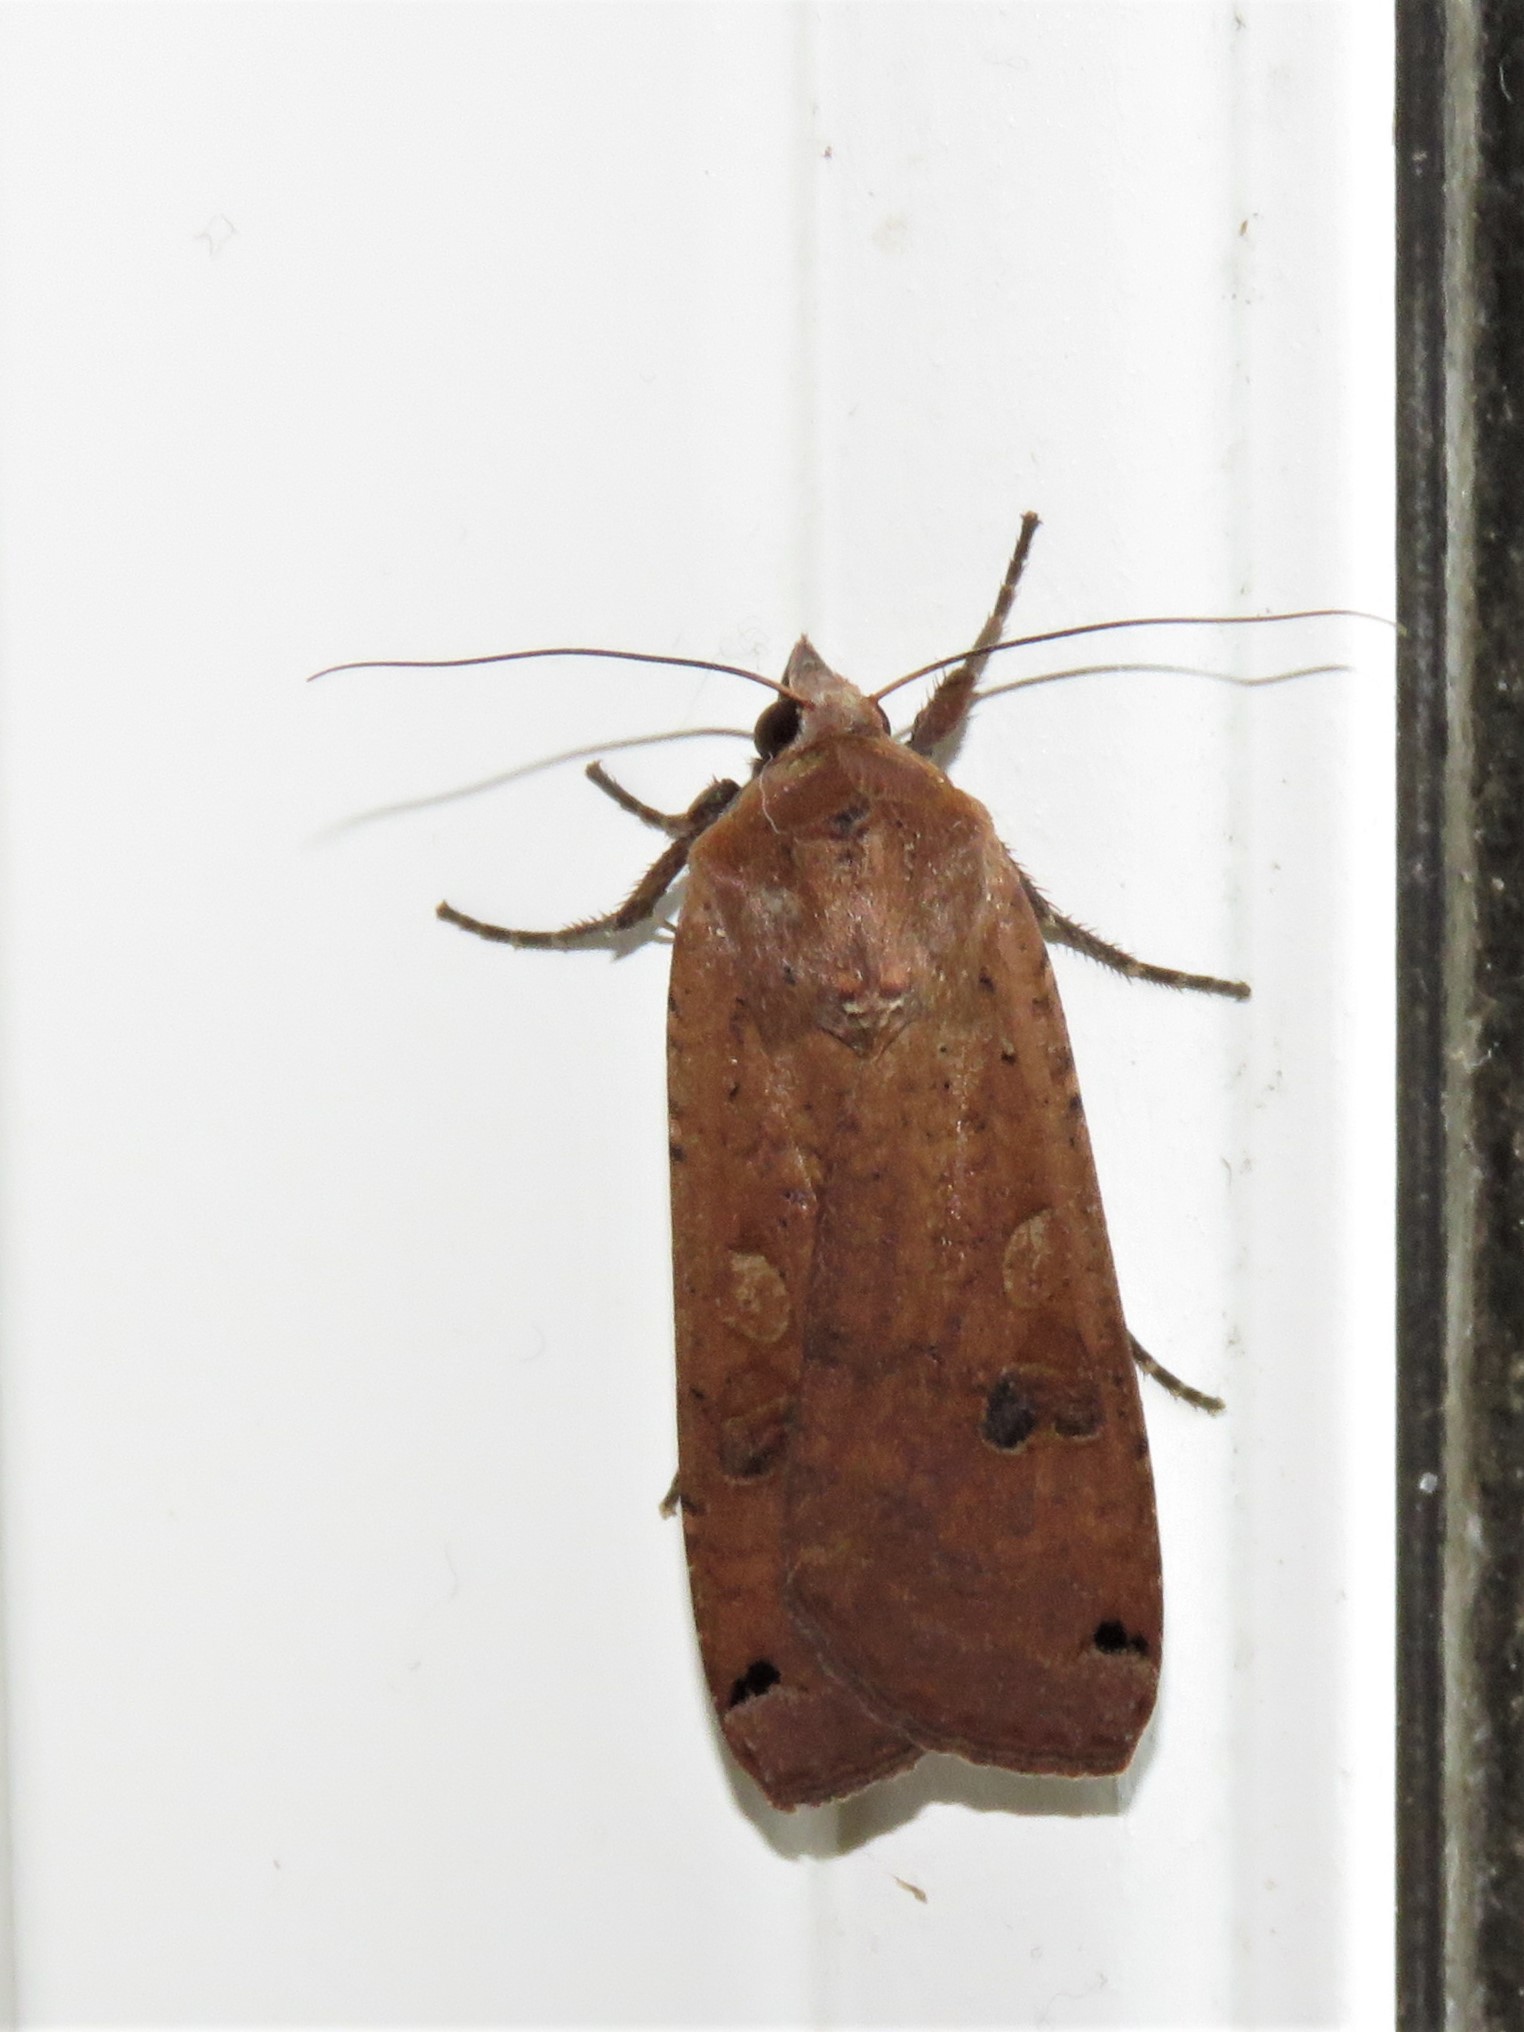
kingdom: Animalia
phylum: Arthropoda
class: Insecta
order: Lepidoptera
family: Noctuidae
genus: Noctua
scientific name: Noctua pronuba
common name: Large yellow underwing
